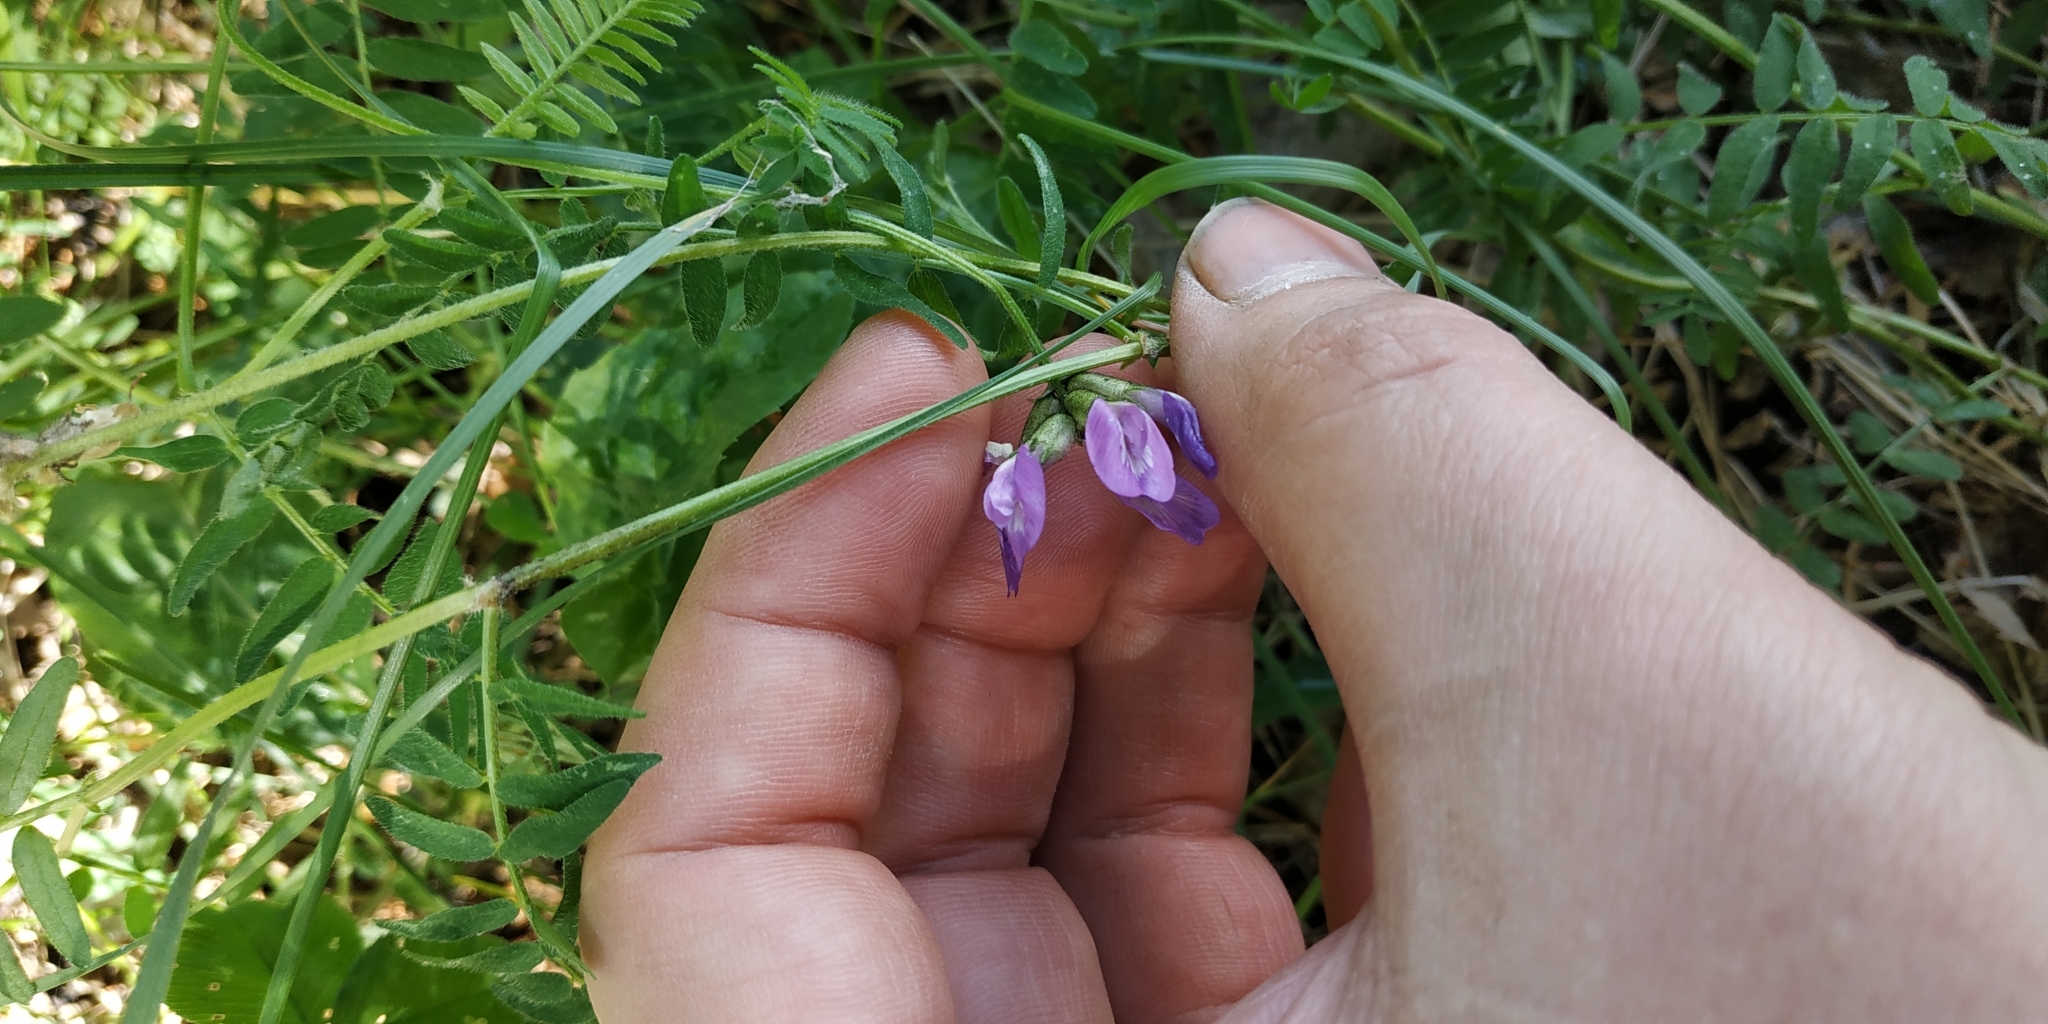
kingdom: Plantae
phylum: Tracheophyta
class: Magnoliopsida
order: Fabales
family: Fabaceae
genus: Astragalus
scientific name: Astragalus danicus
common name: Purple milk-vetch
